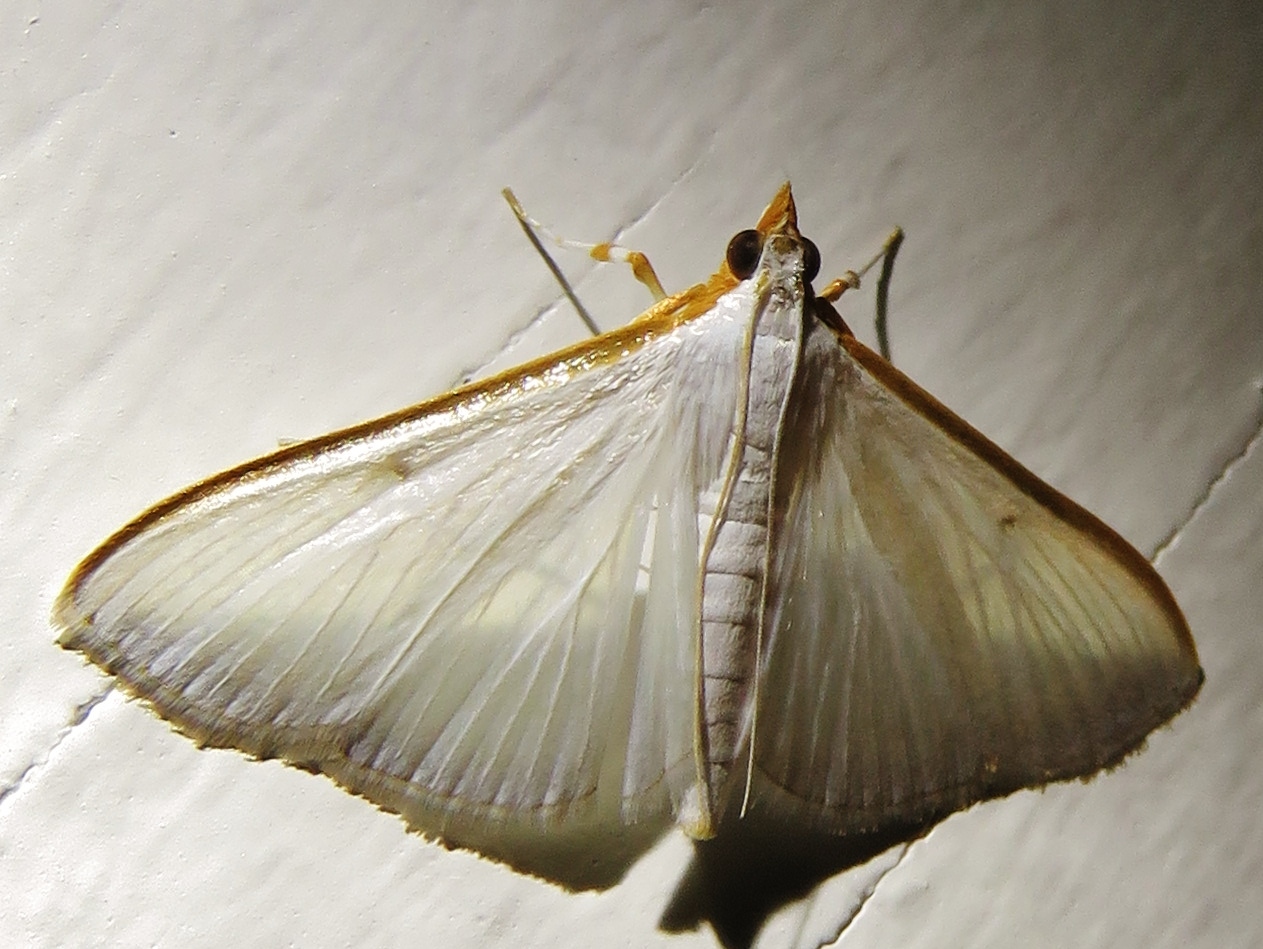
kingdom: Animalia
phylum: Arthropoda
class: Insecta
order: Lepidoptera
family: Crambidae
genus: Diaphania
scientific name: Diaphania costata
